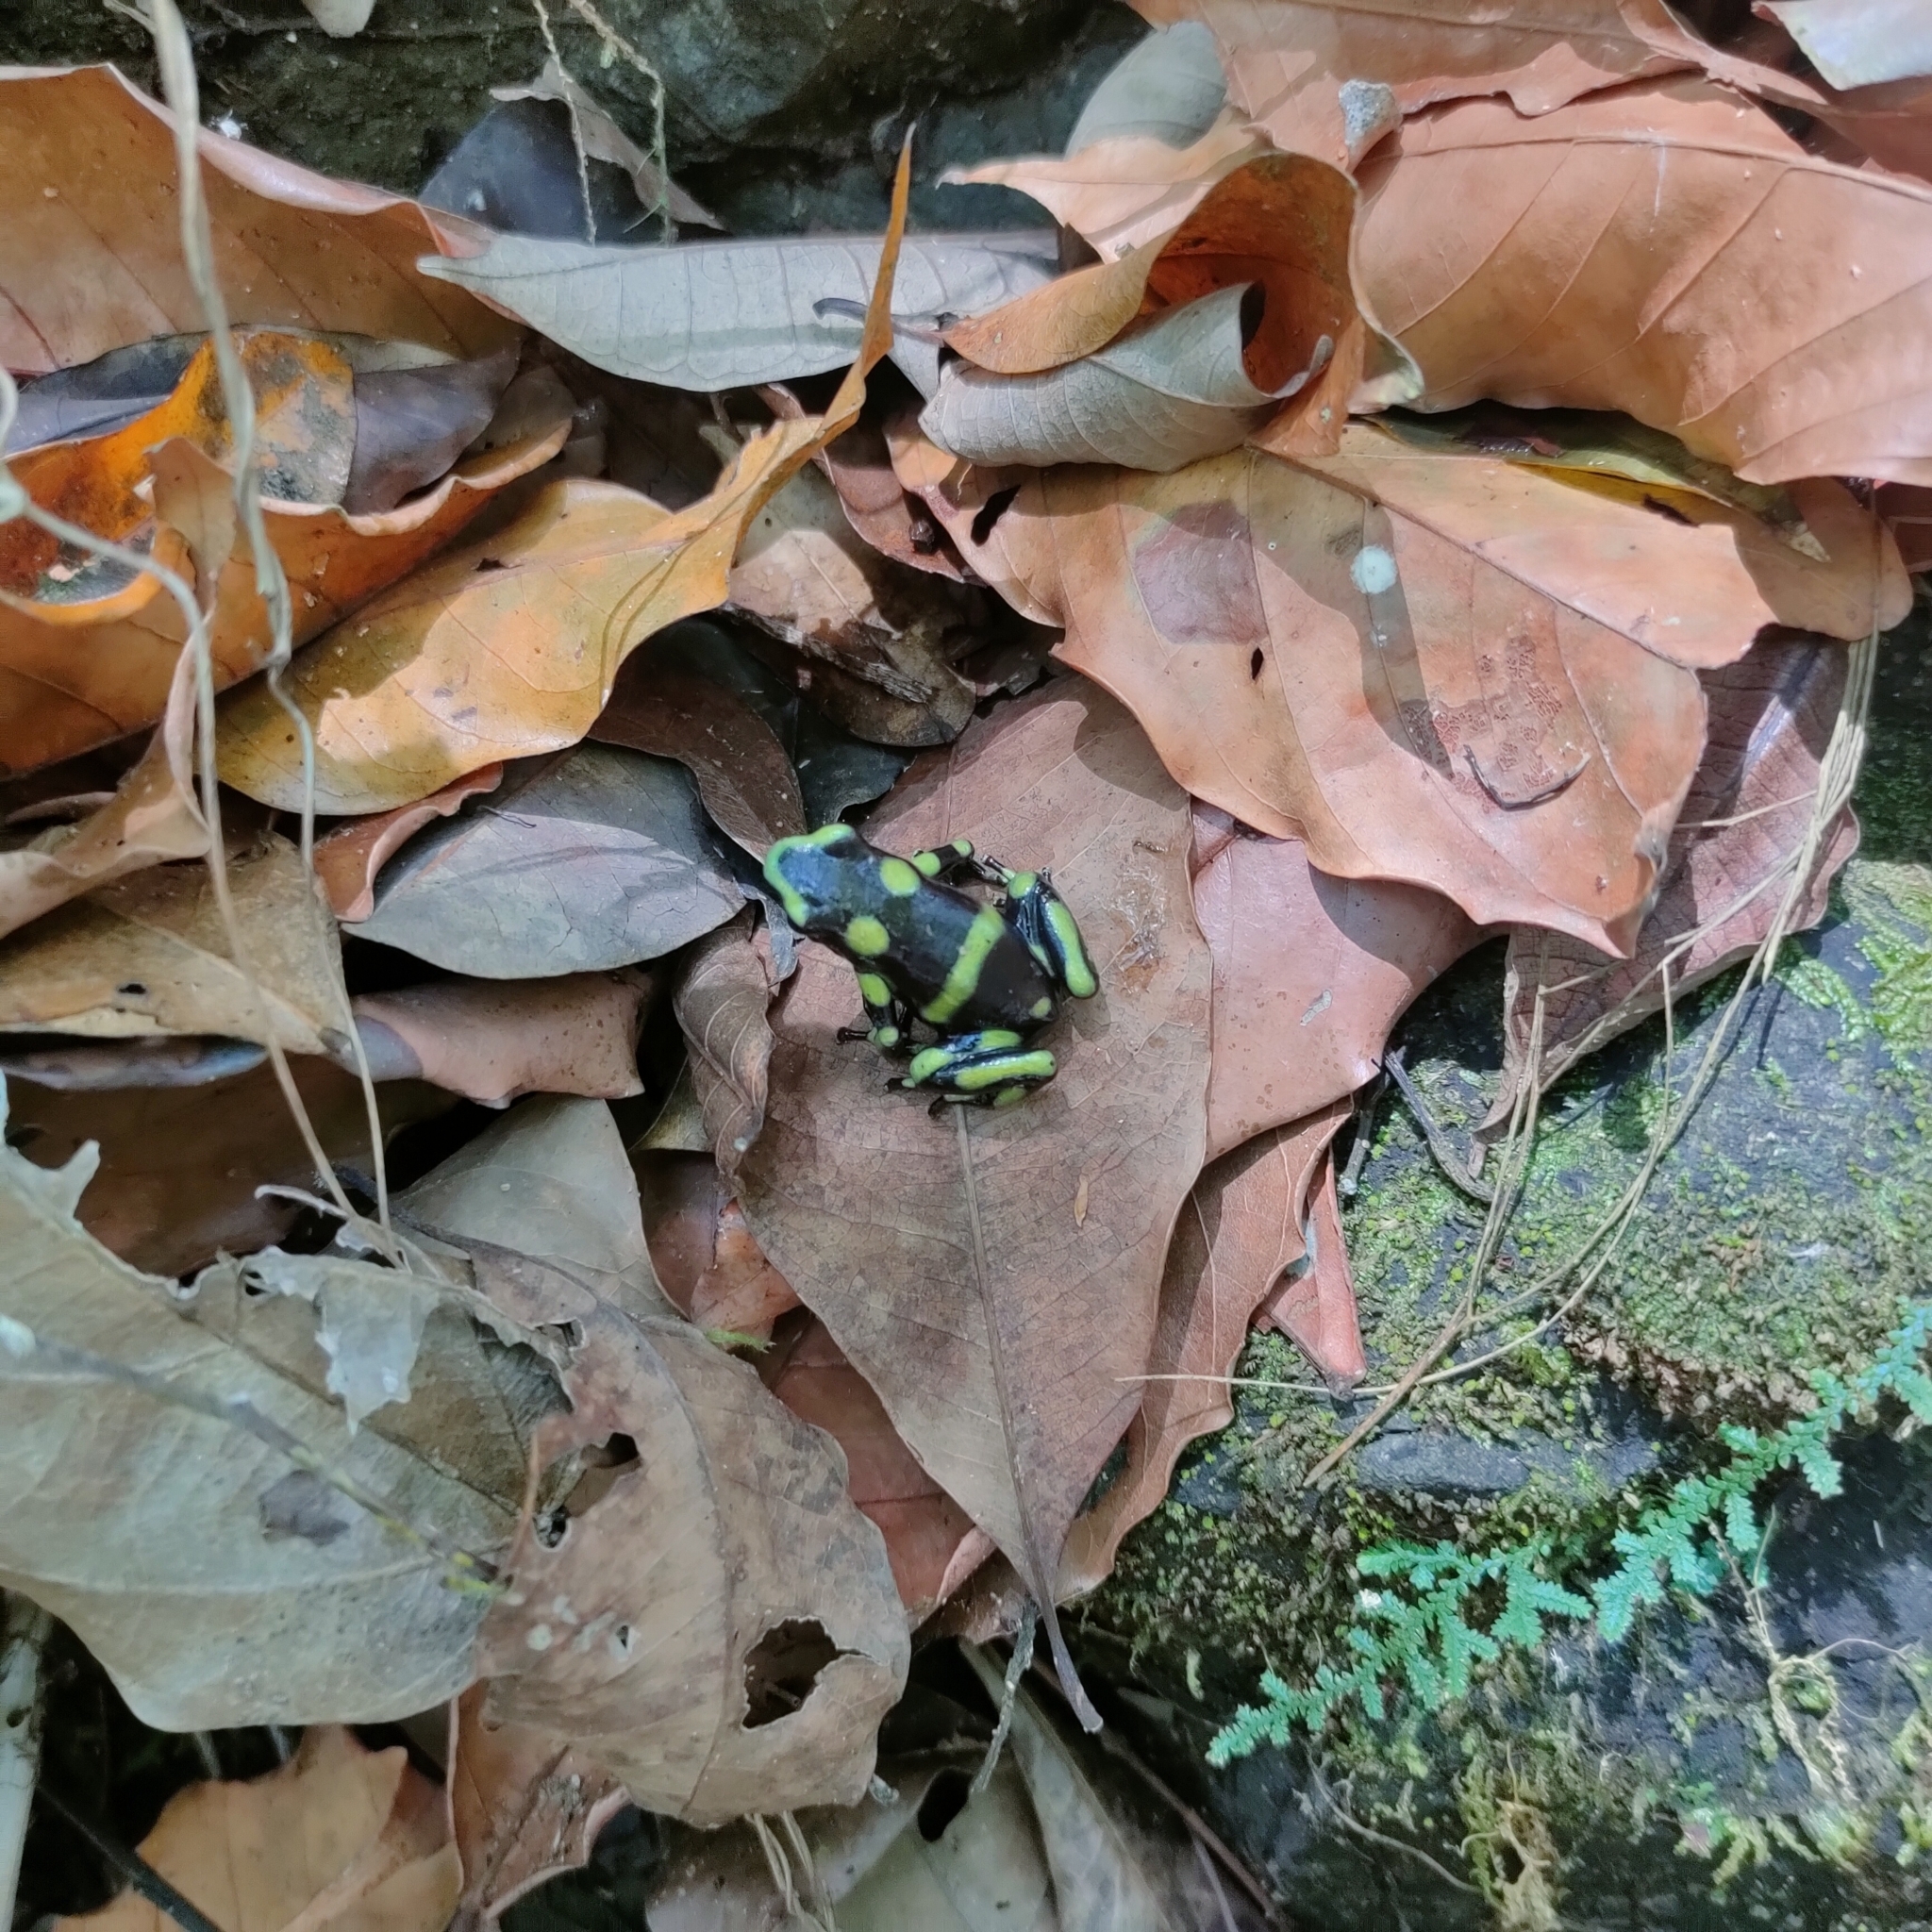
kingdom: Animalia
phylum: Chordata
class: Amphibia
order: Anura
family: Dendrobatidae
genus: Dendrobates
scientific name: Dendrobates auratus
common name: Green and black poison dart frog
